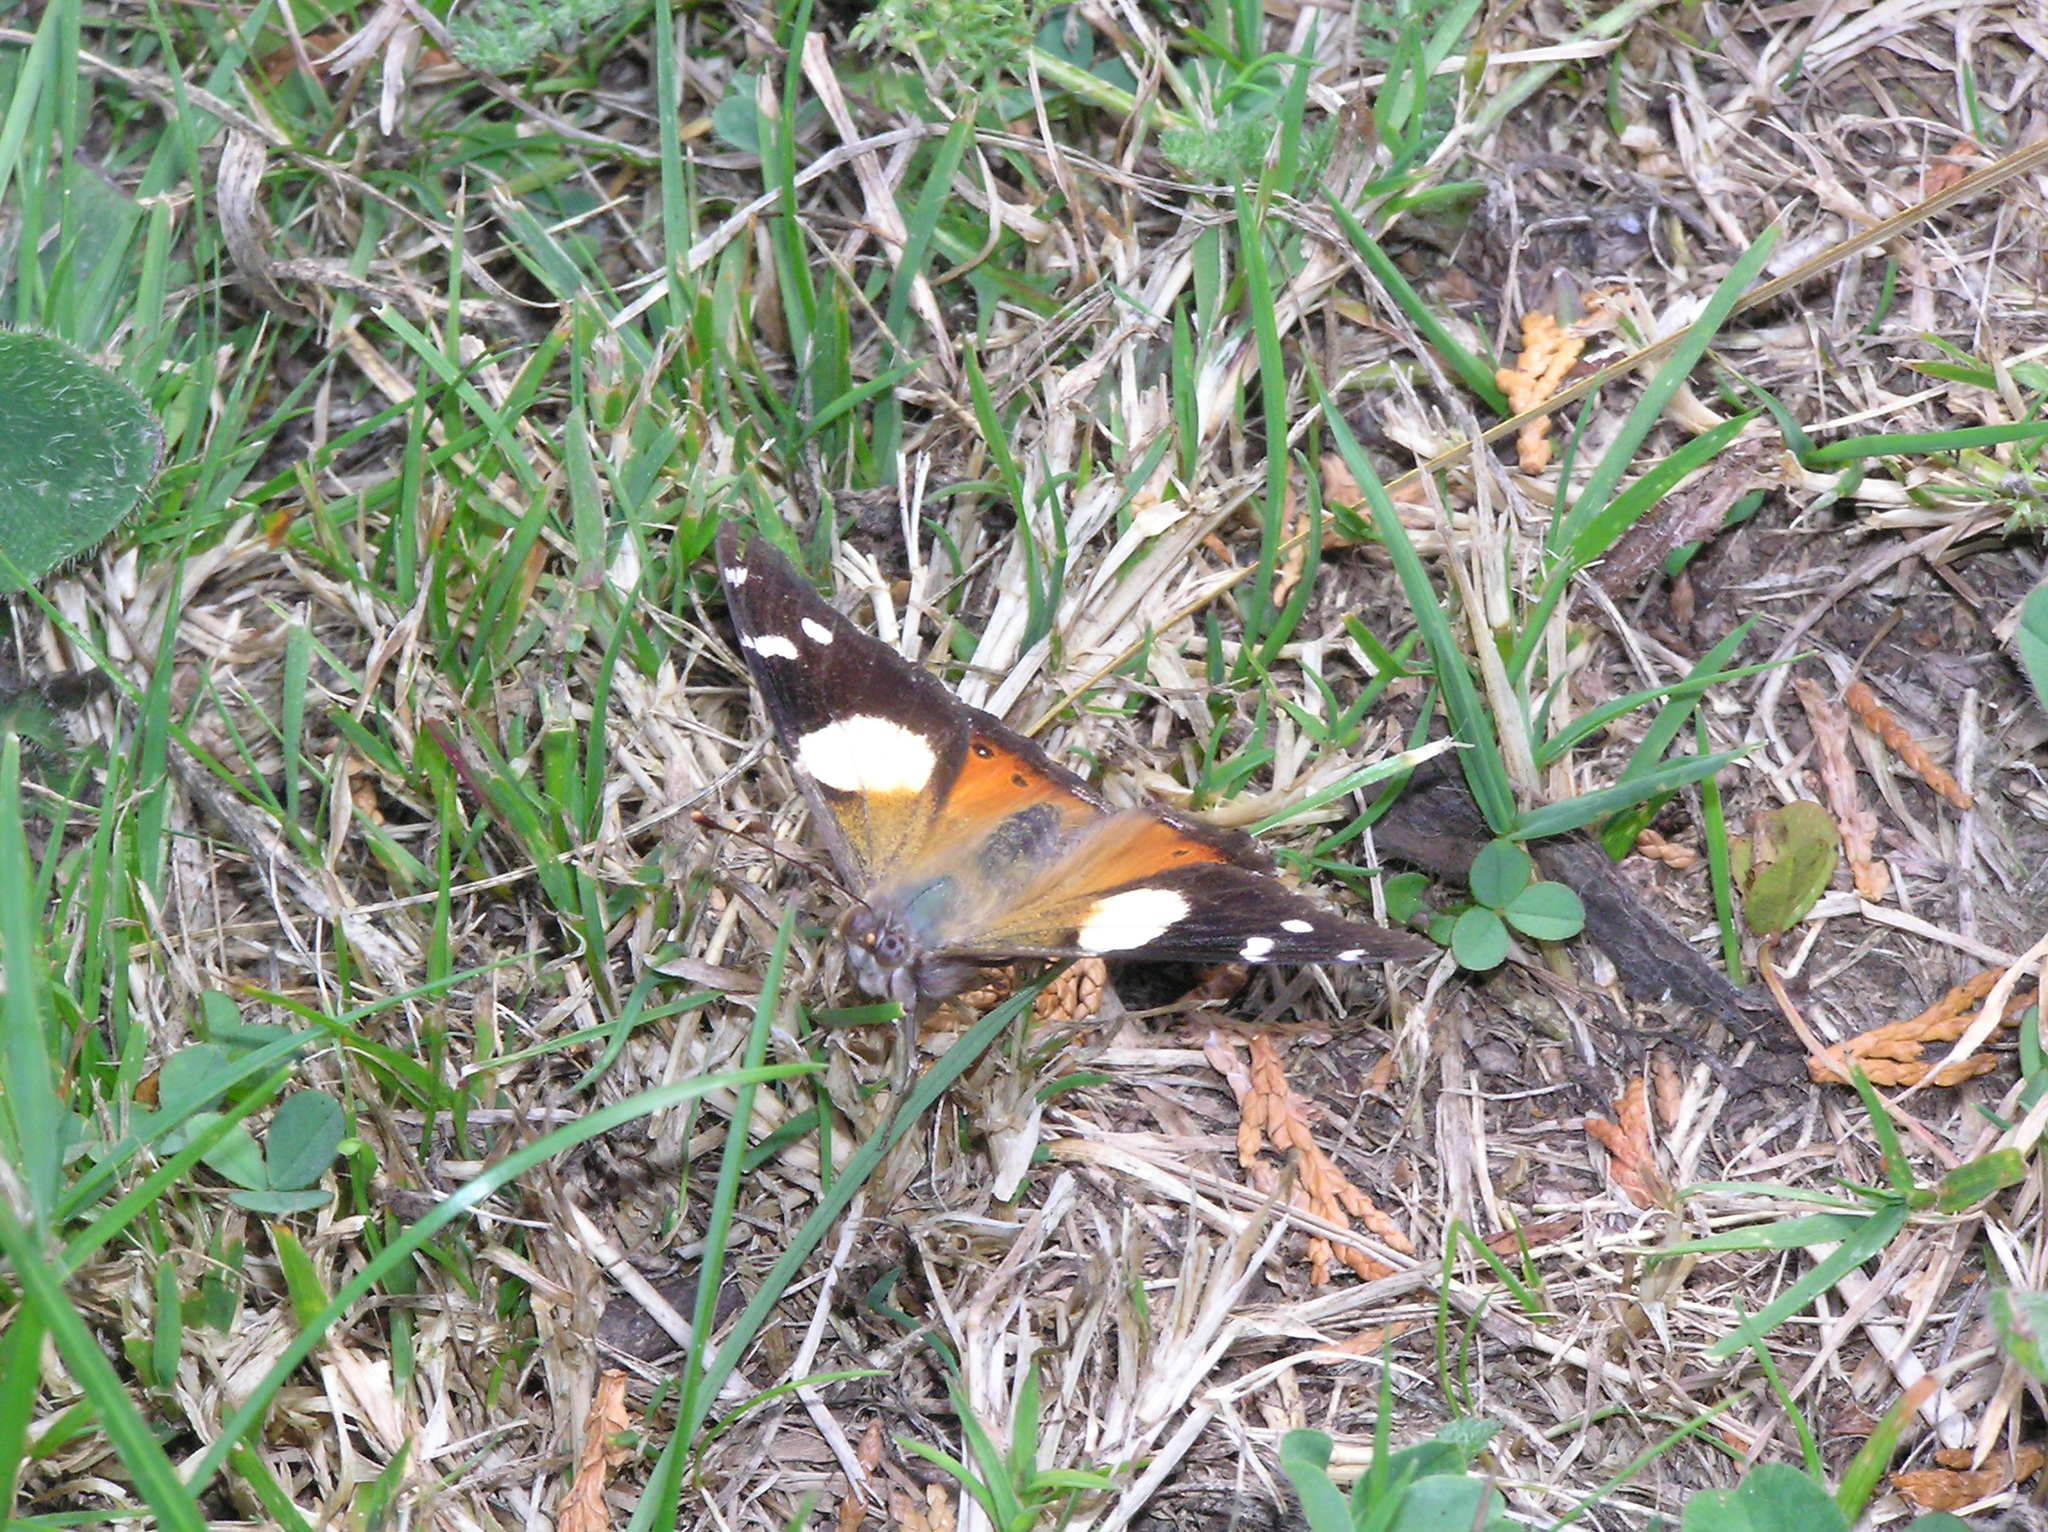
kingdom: Animalia
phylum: Arthropoda
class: Insecta
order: Lepidoptera
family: Nymphalidae
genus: Vanessa
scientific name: Vanessa itea
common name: Yellow admiral
